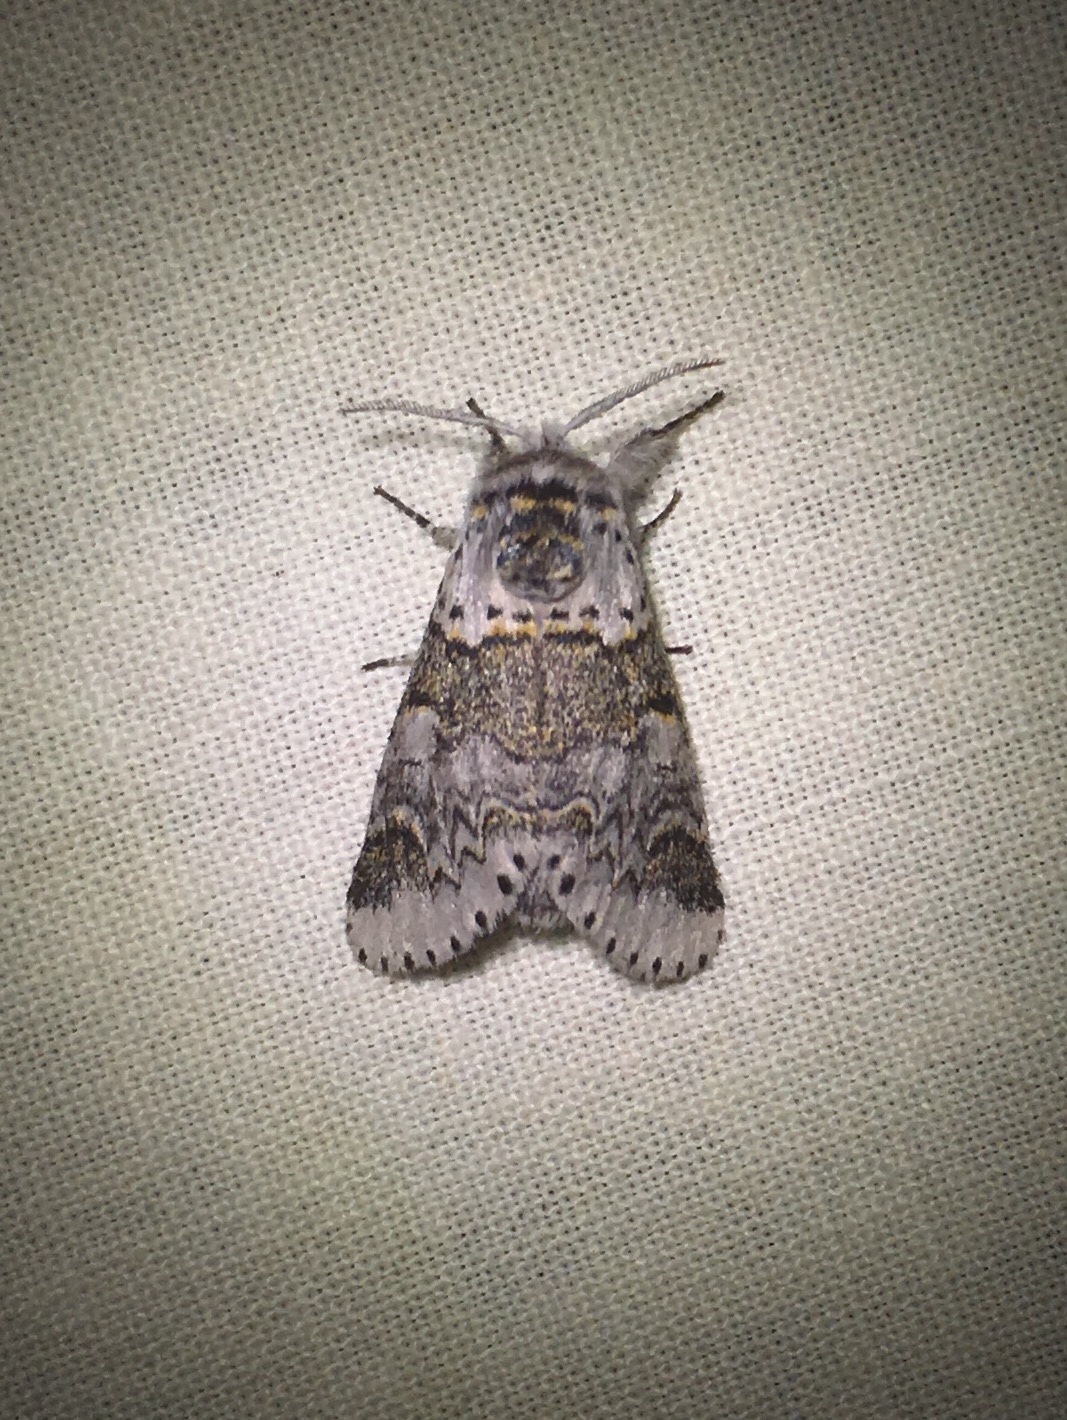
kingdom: Animalia
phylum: Arthropoda
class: Insecta
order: Lepidoptera
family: Notodontidae
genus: Furcula
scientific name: Furcula occidentalis
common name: Western furcula moth
